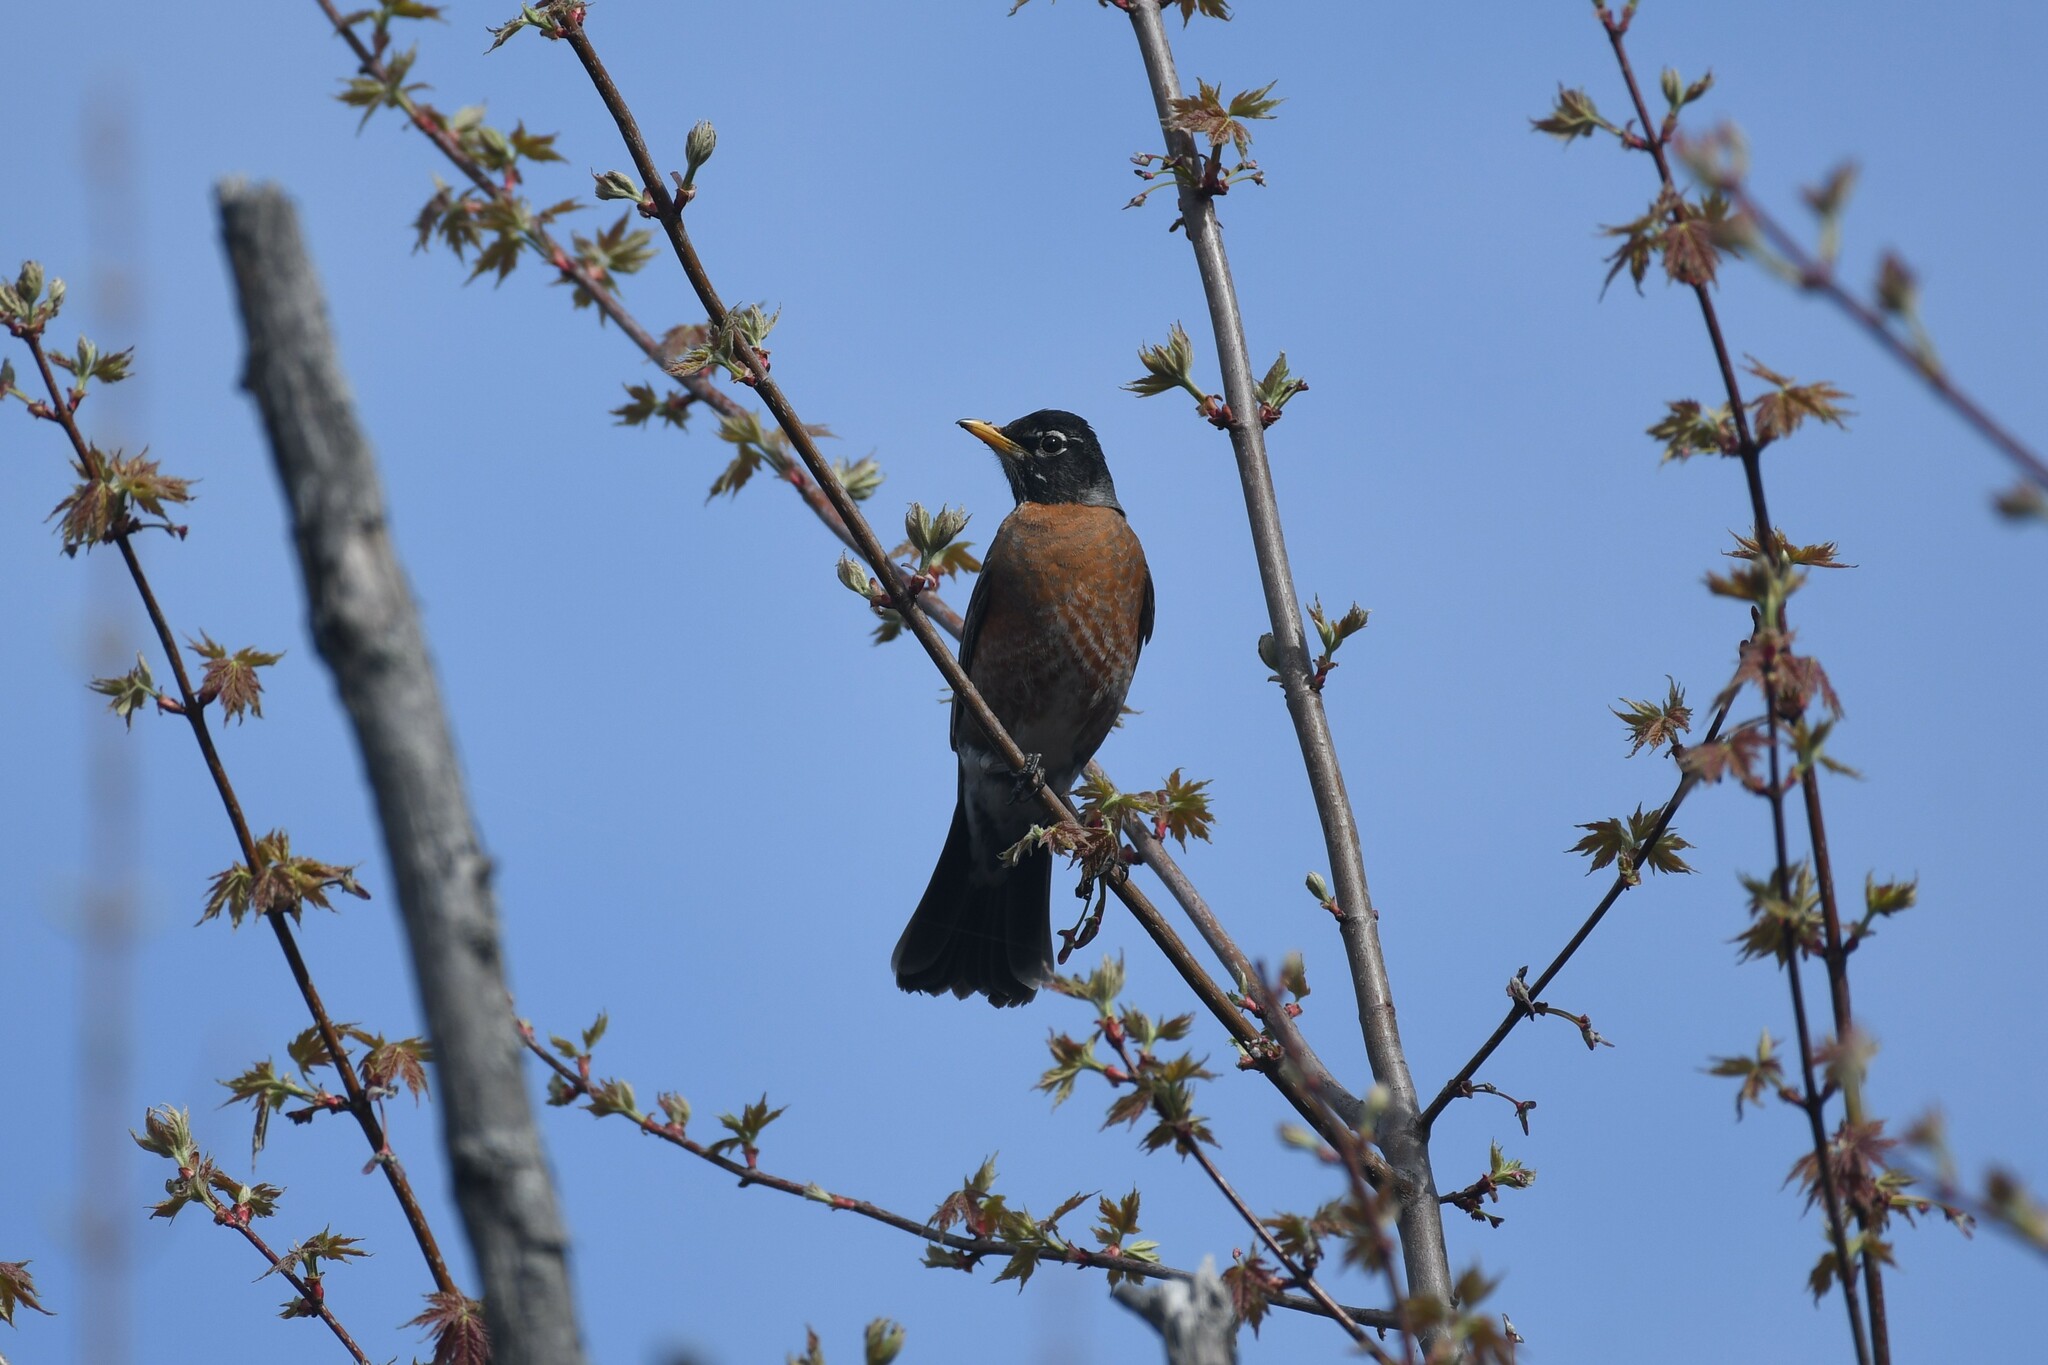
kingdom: Animalia
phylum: Chordata
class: Aves
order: Passeriformes
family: Turdidae
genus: Turdus
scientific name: Turdus migratorius
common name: American robin
